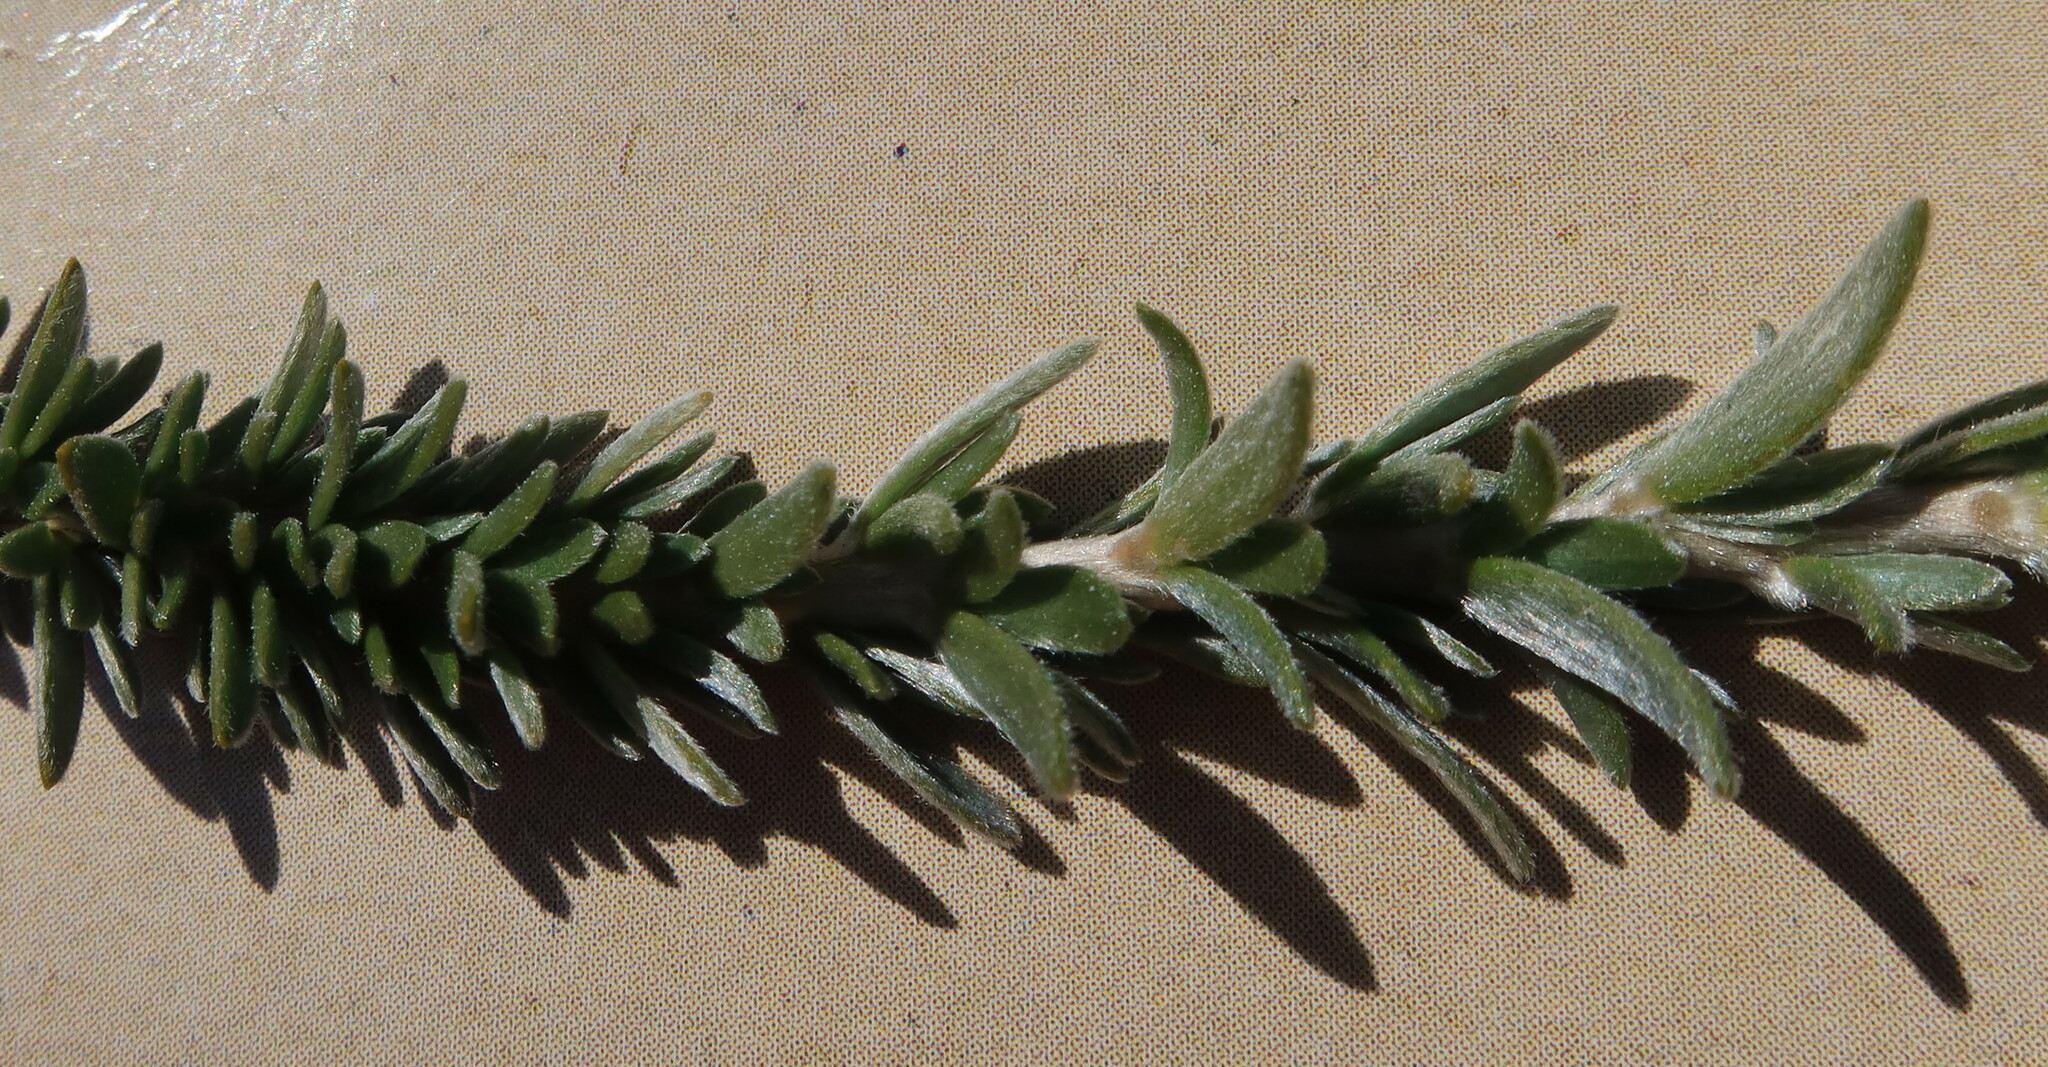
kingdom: Plantae
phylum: Tracheophyta
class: Magnoliopsida
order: Fabales
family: Fabaceae
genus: Aspalathus
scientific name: Aspalathus sericea
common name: Silky pea
